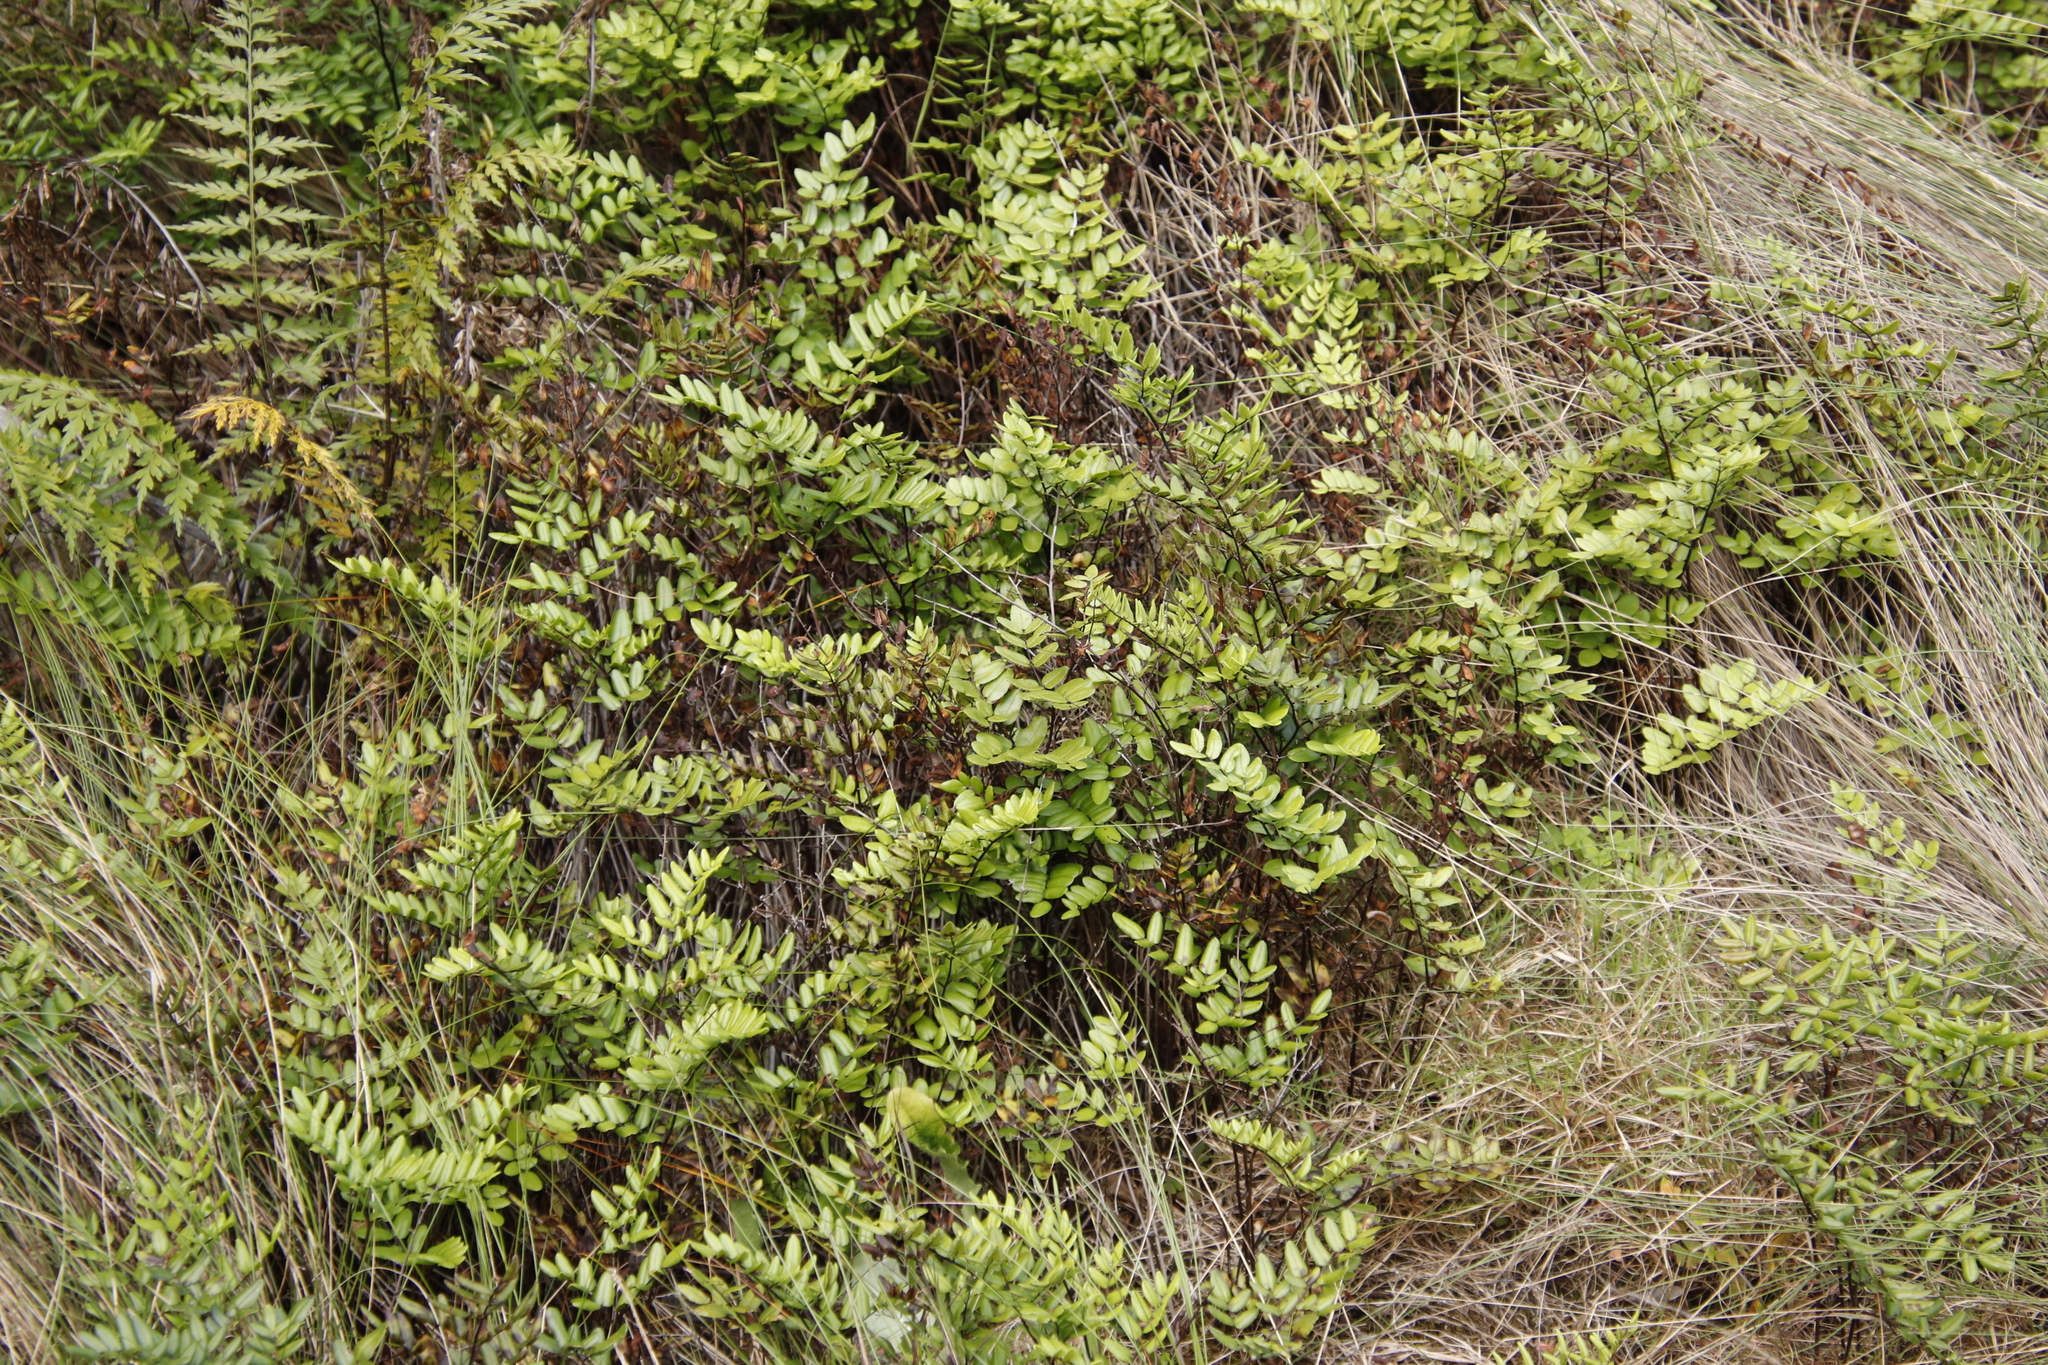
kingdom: Plantae
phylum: Tracheophyta
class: Polypodiopsida
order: Polypodiales
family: Pteridaceae
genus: Pellaea
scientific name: Pellaea pteroides
